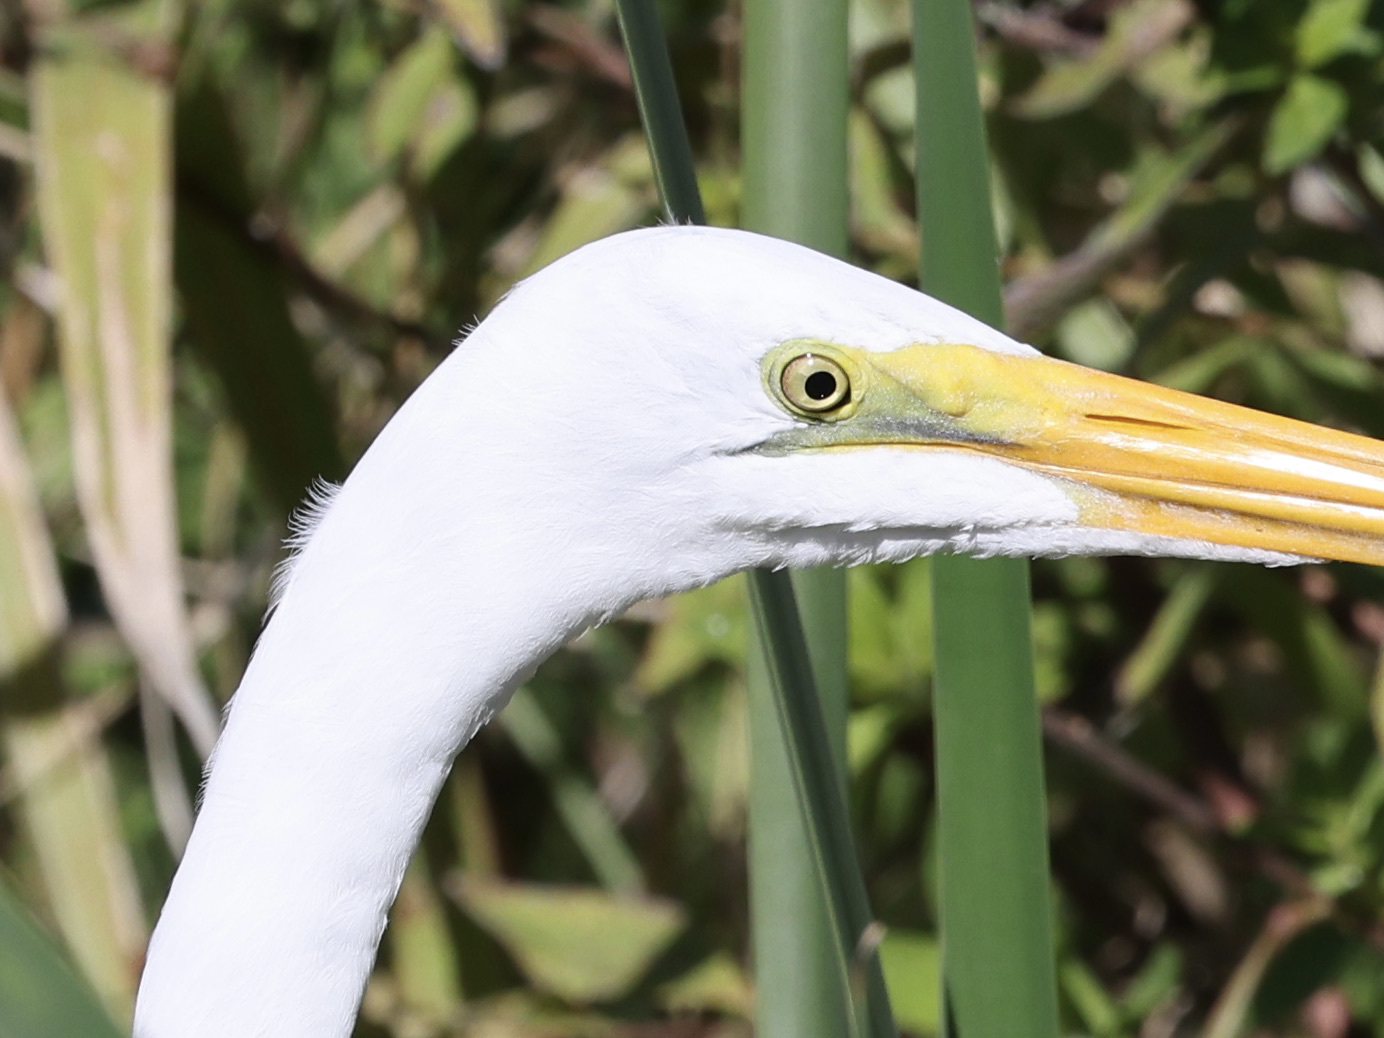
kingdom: Animalia
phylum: Chordata
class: Aves
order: Pelecaniformes
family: Ardeidae
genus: Ardea
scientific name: Ardea alba
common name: Great egret
